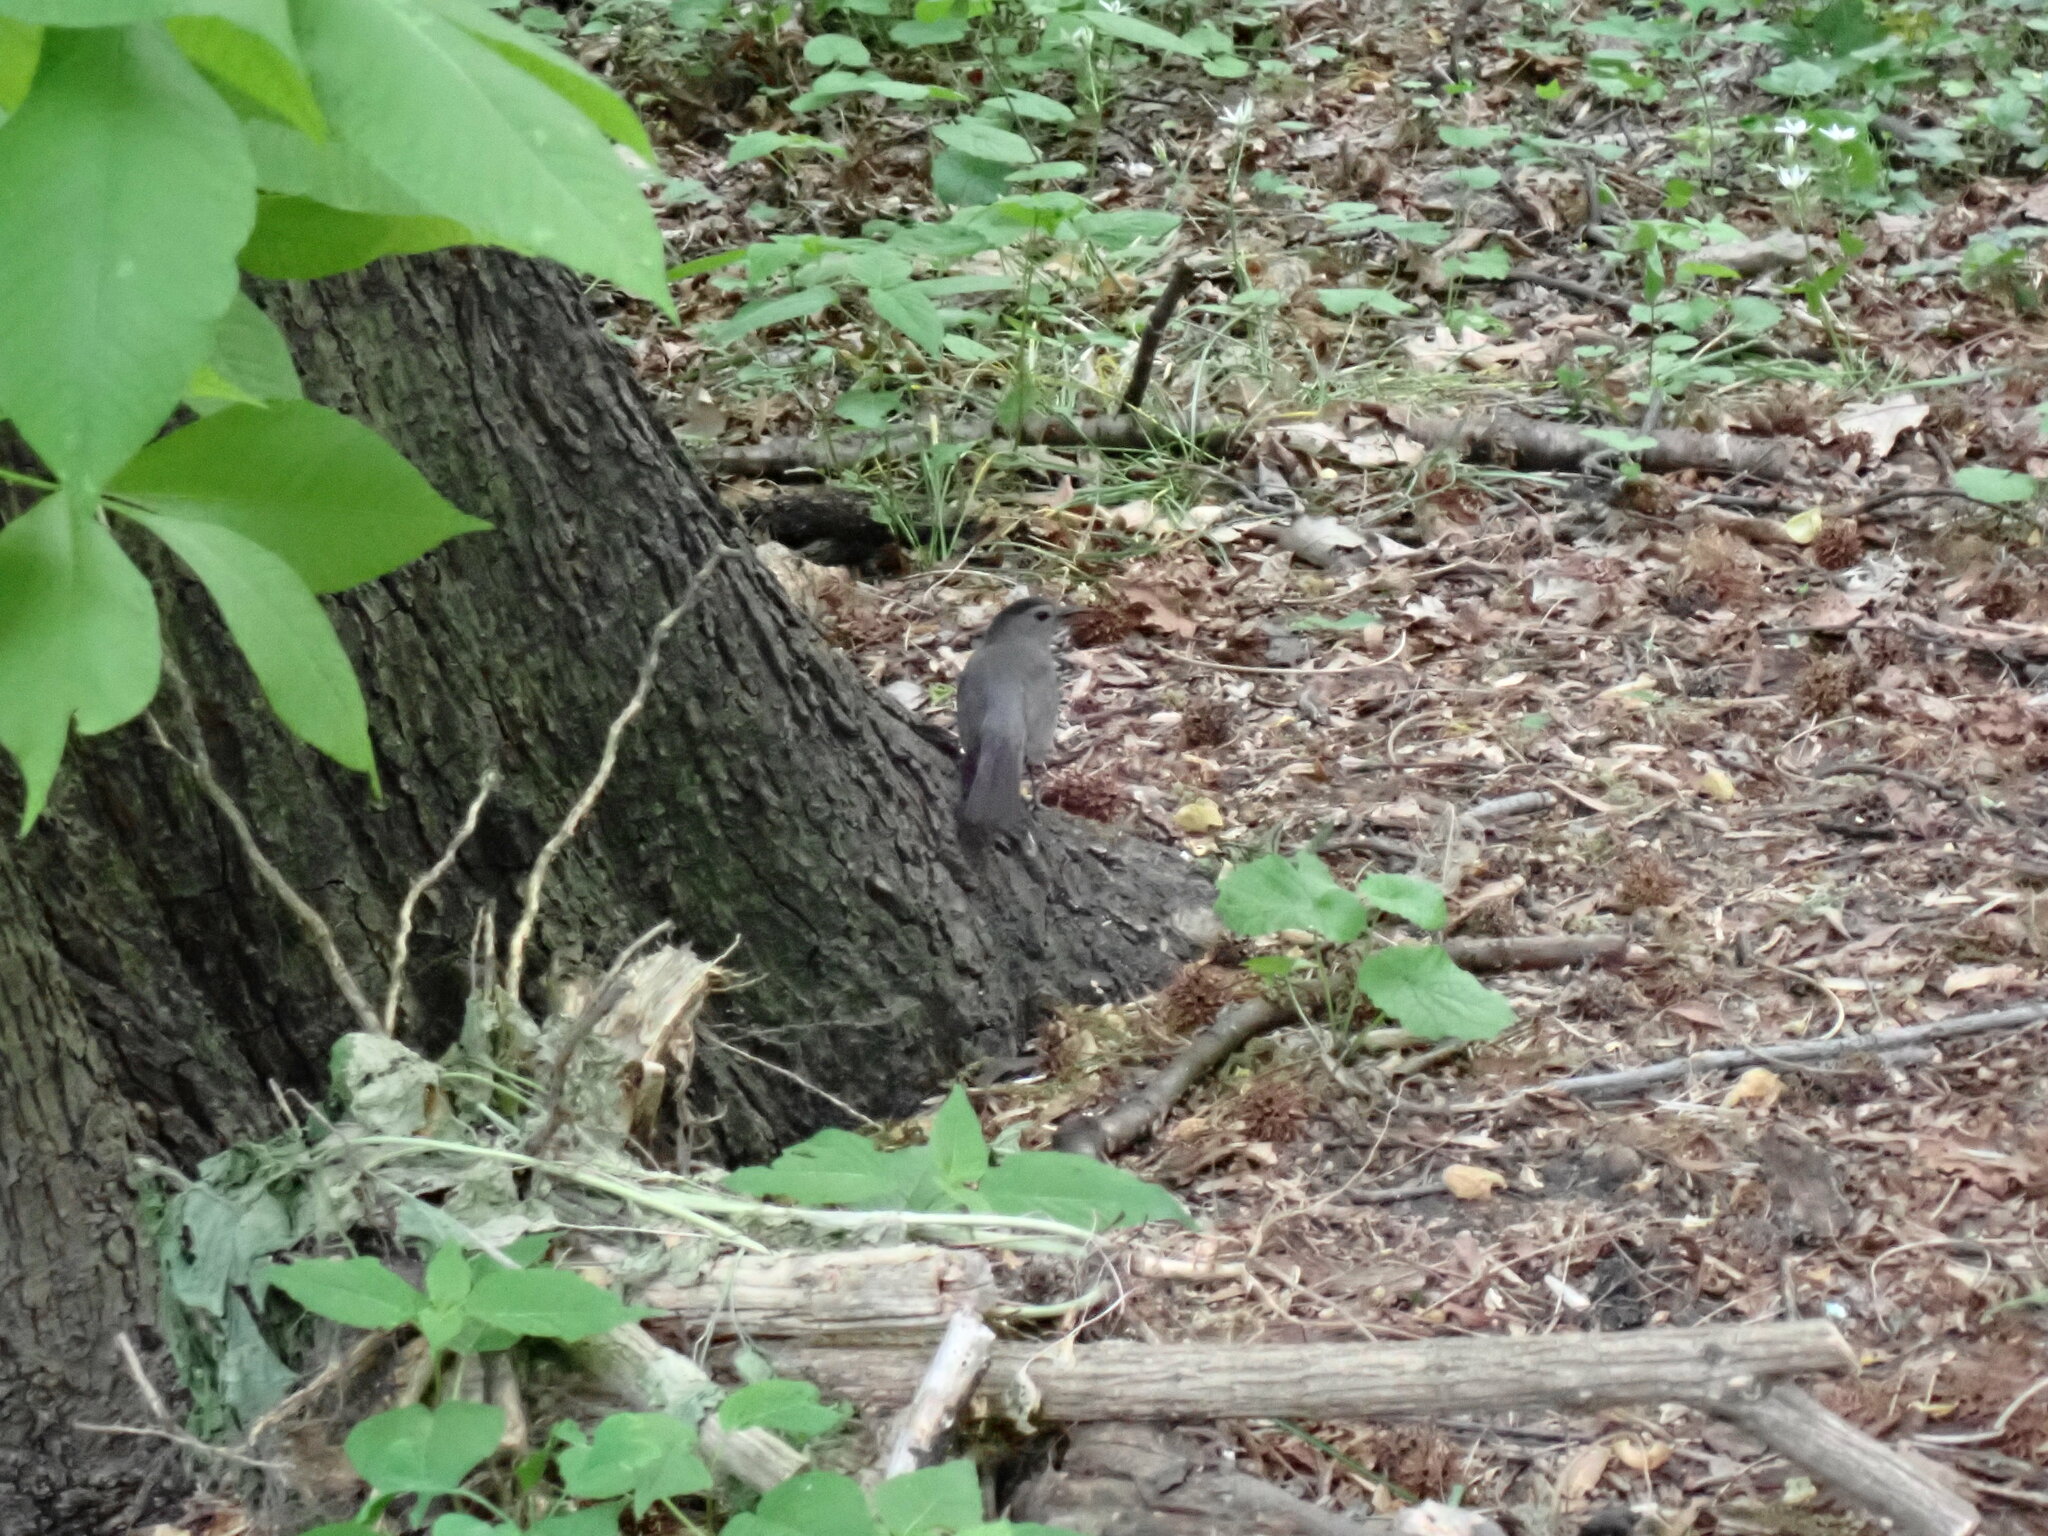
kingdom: Animalia
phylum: Chordata
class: Aves
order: Passeriformes
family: Mimidae
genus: Dumetella
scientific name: Dumetella carolinensis
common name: Gray catbird
